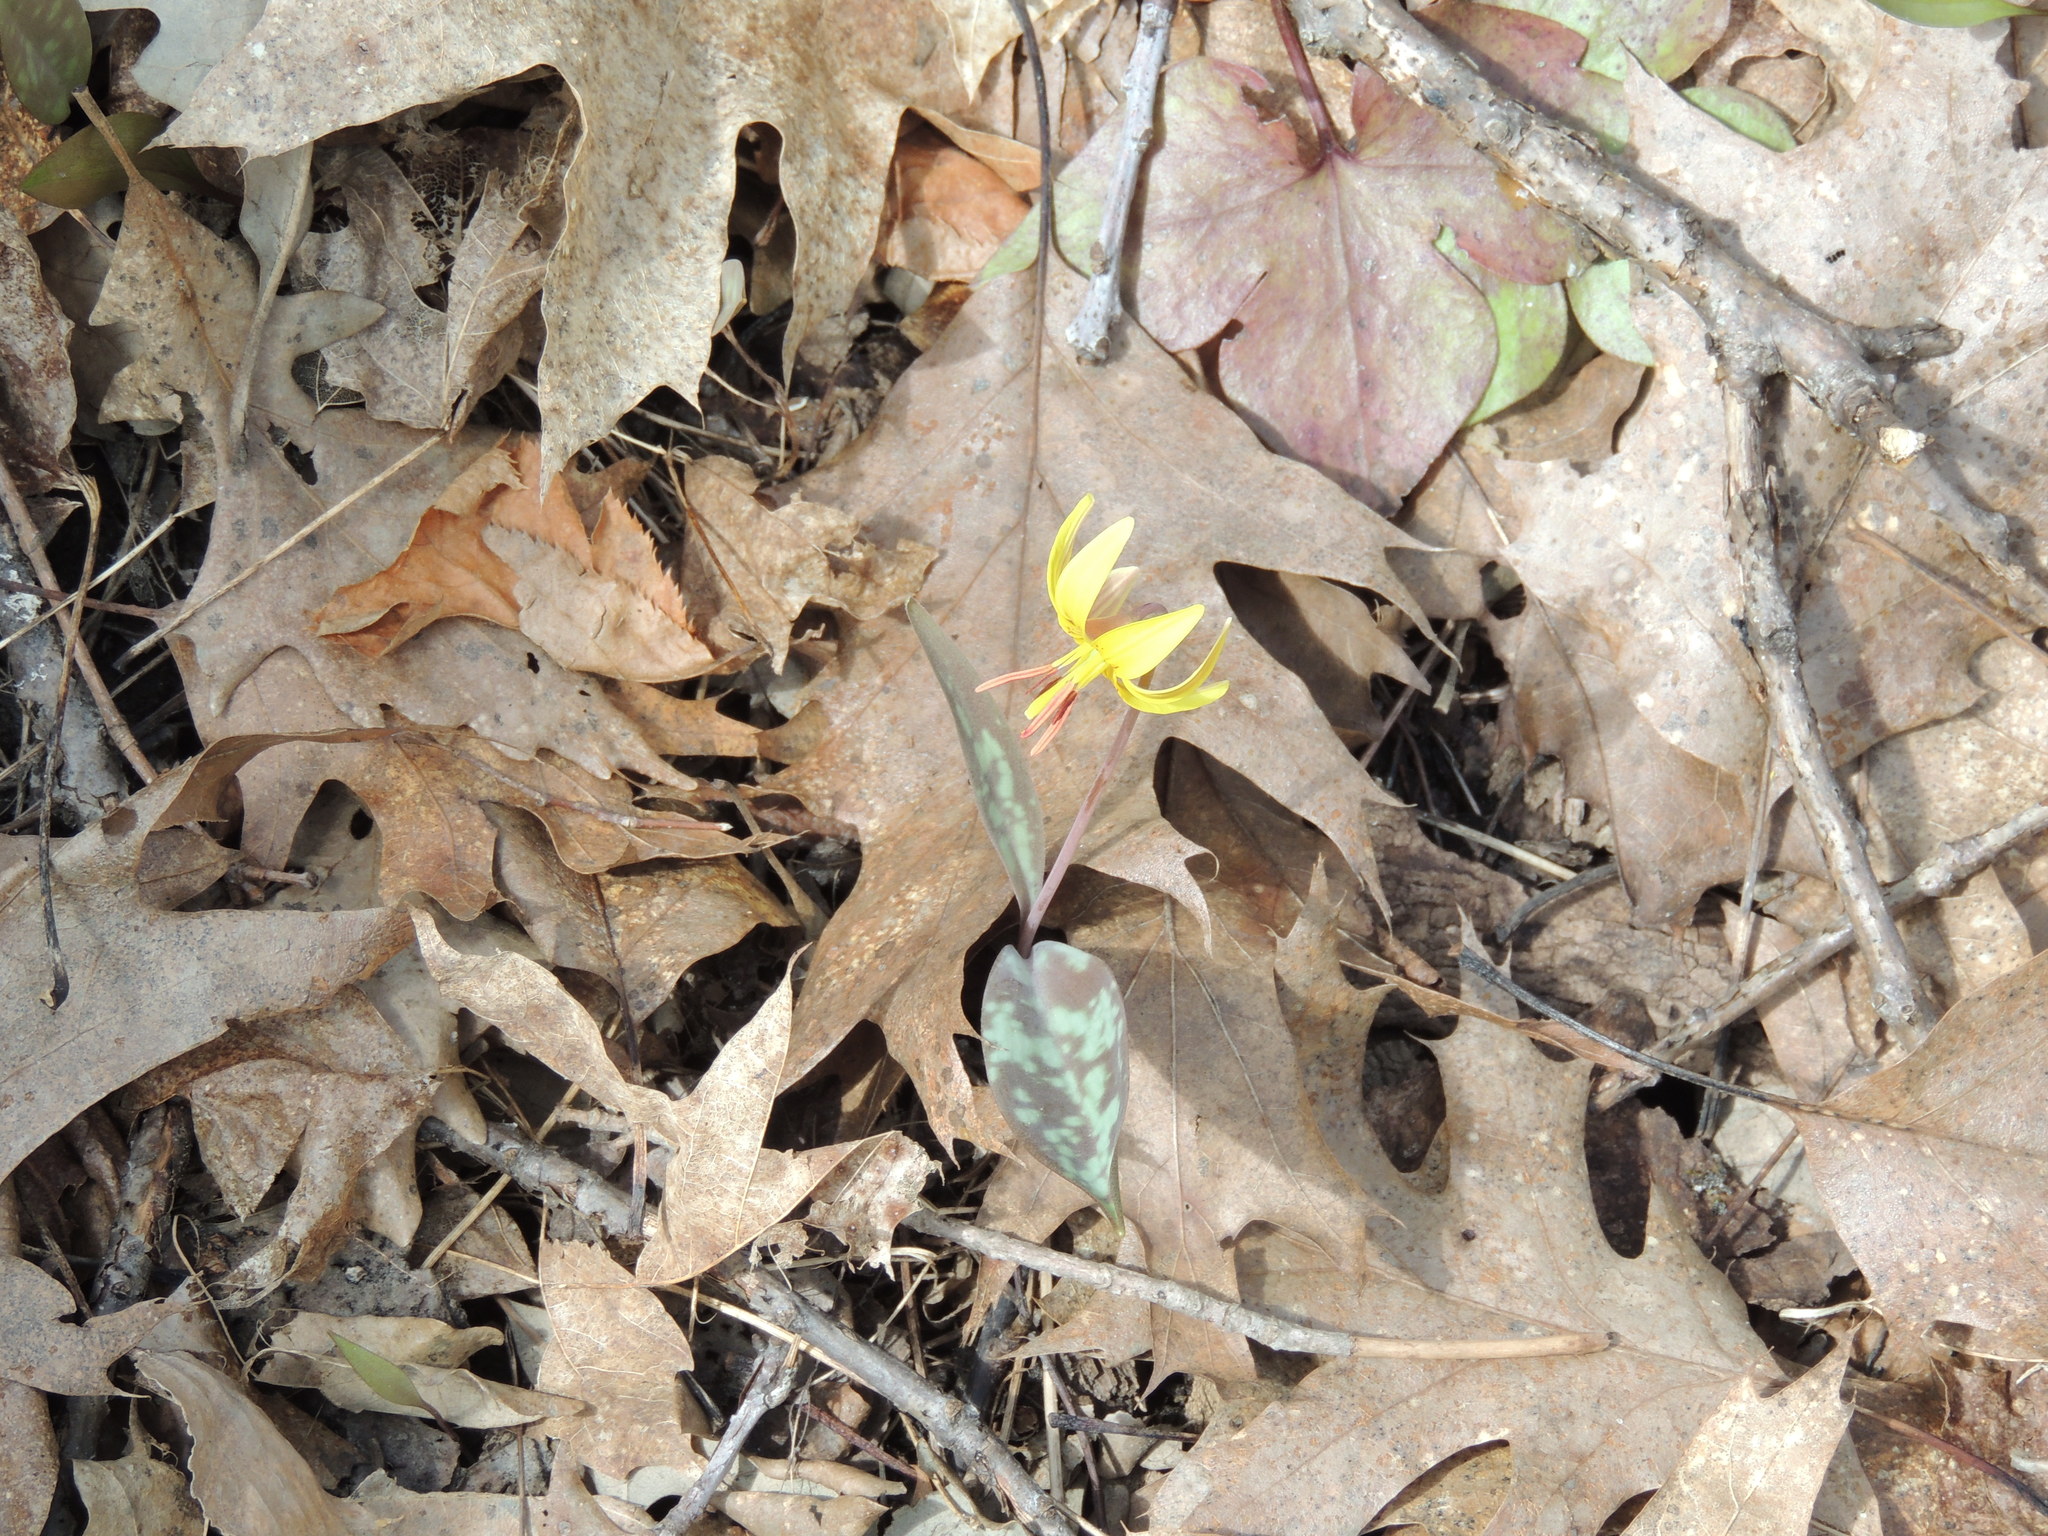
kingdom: Plantae
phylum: Tracheophyta
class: Liliopsida
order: Liliales
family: Liliaceae
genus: Erythronium
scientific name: Erythronium americanum
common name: Yellow adder's-tongue
